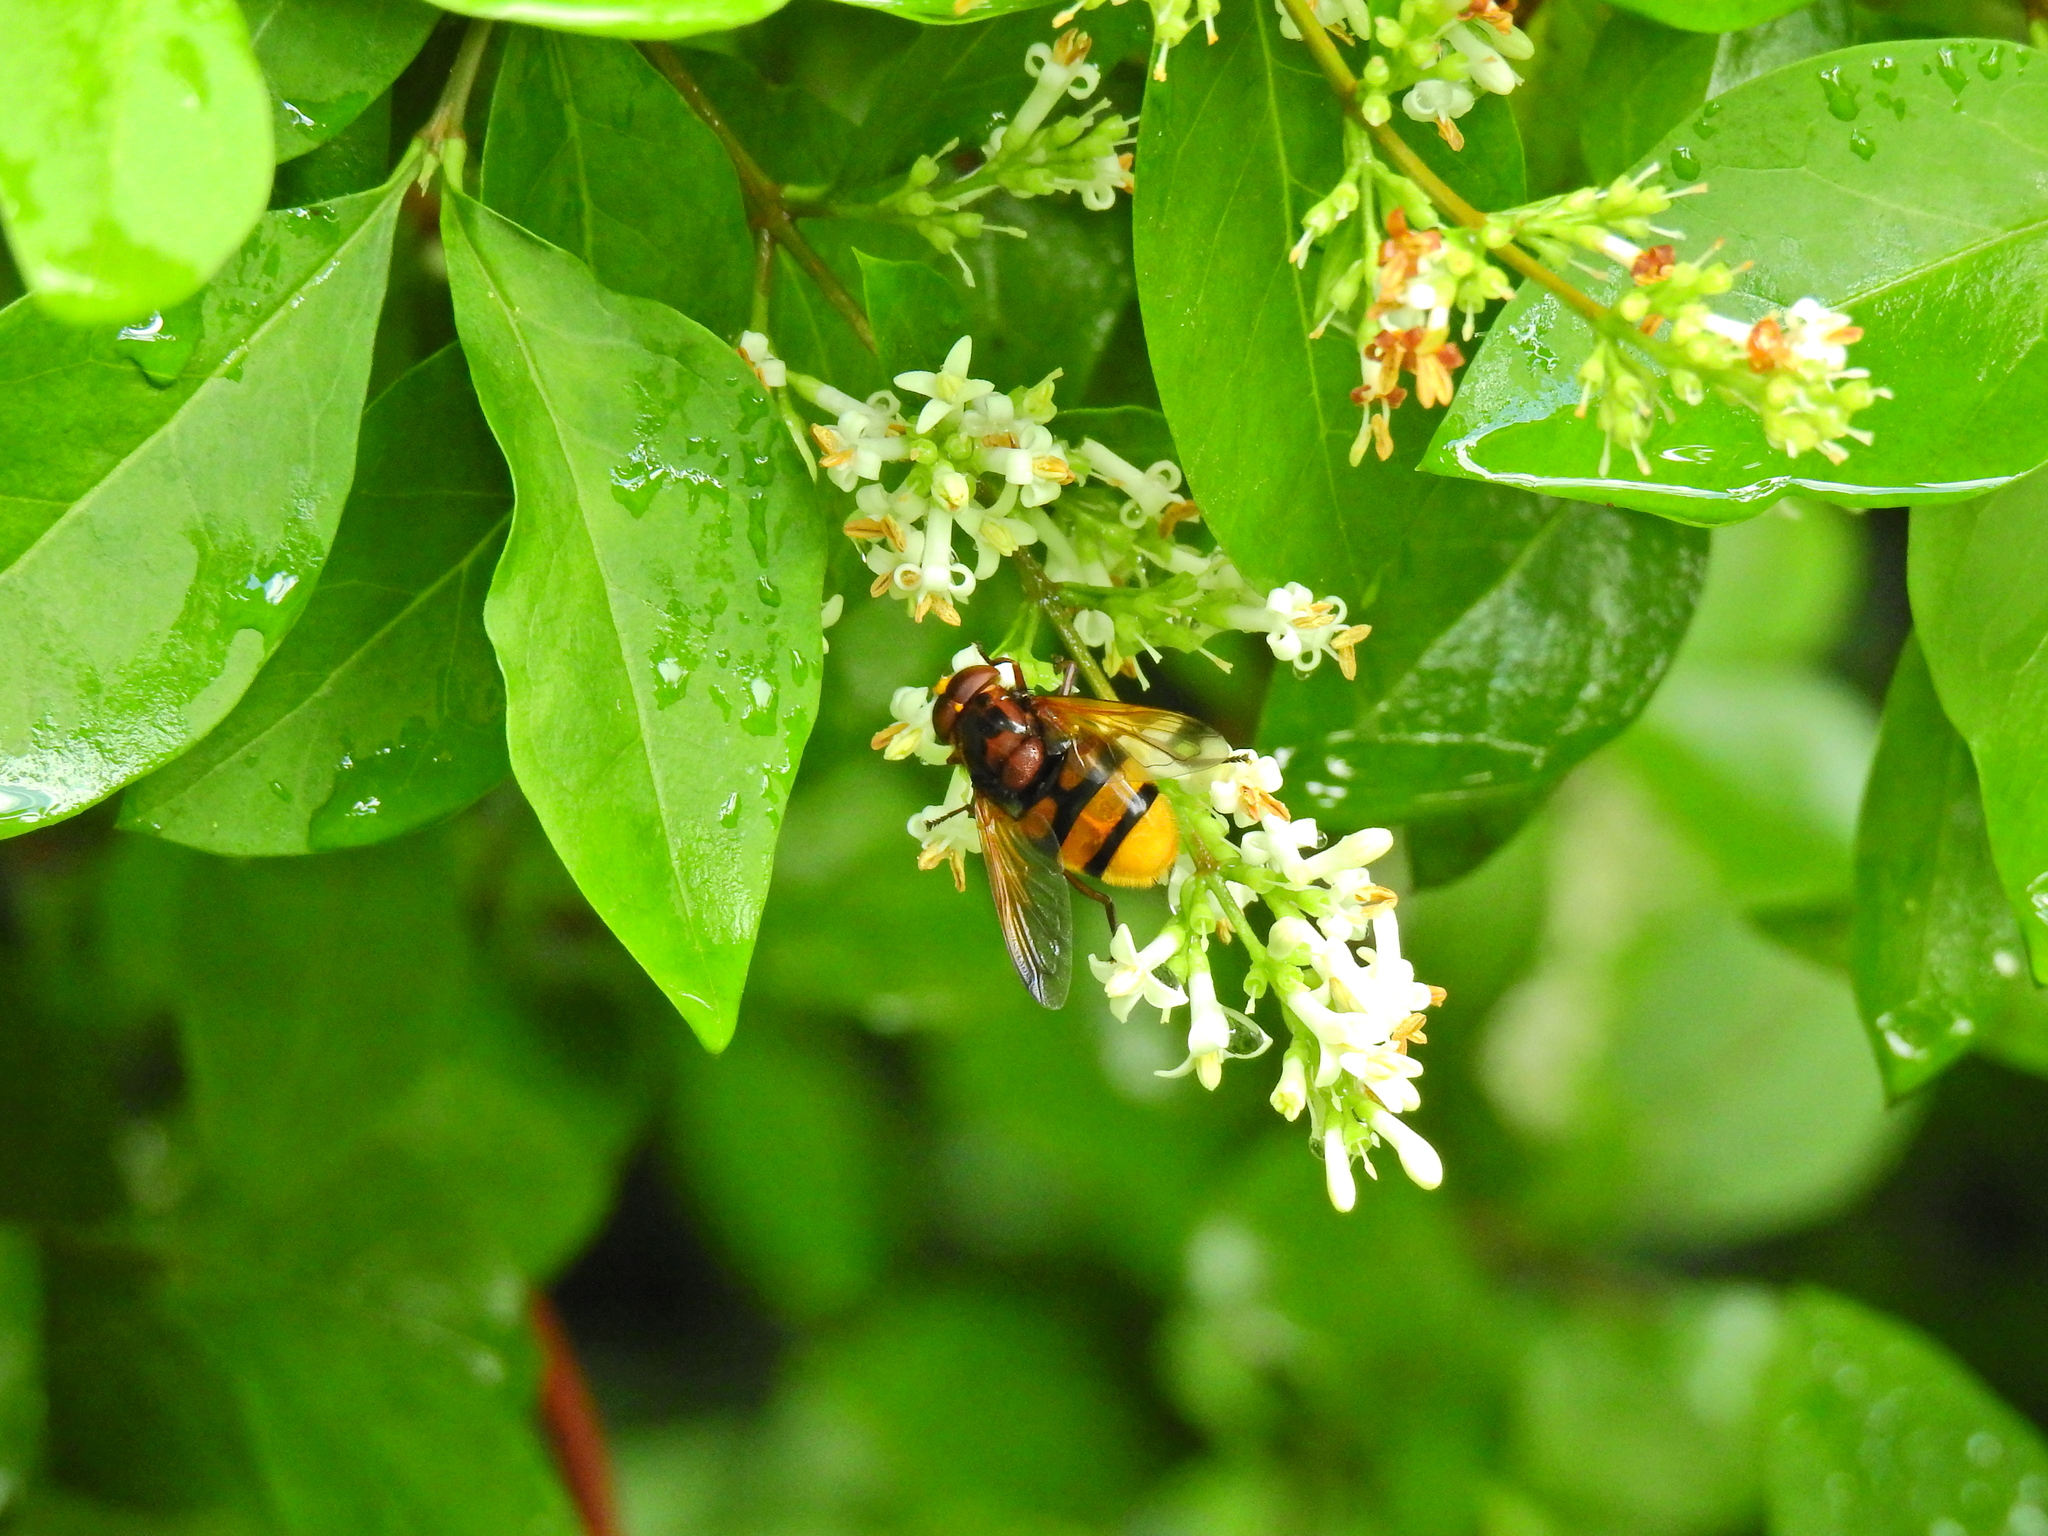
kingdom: Animalia
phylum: Arthropoda
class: Insecta
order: Diptera
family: Syrphidae
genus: Volucella
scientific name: Volucella zonaria
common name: Hornet hoverfly
